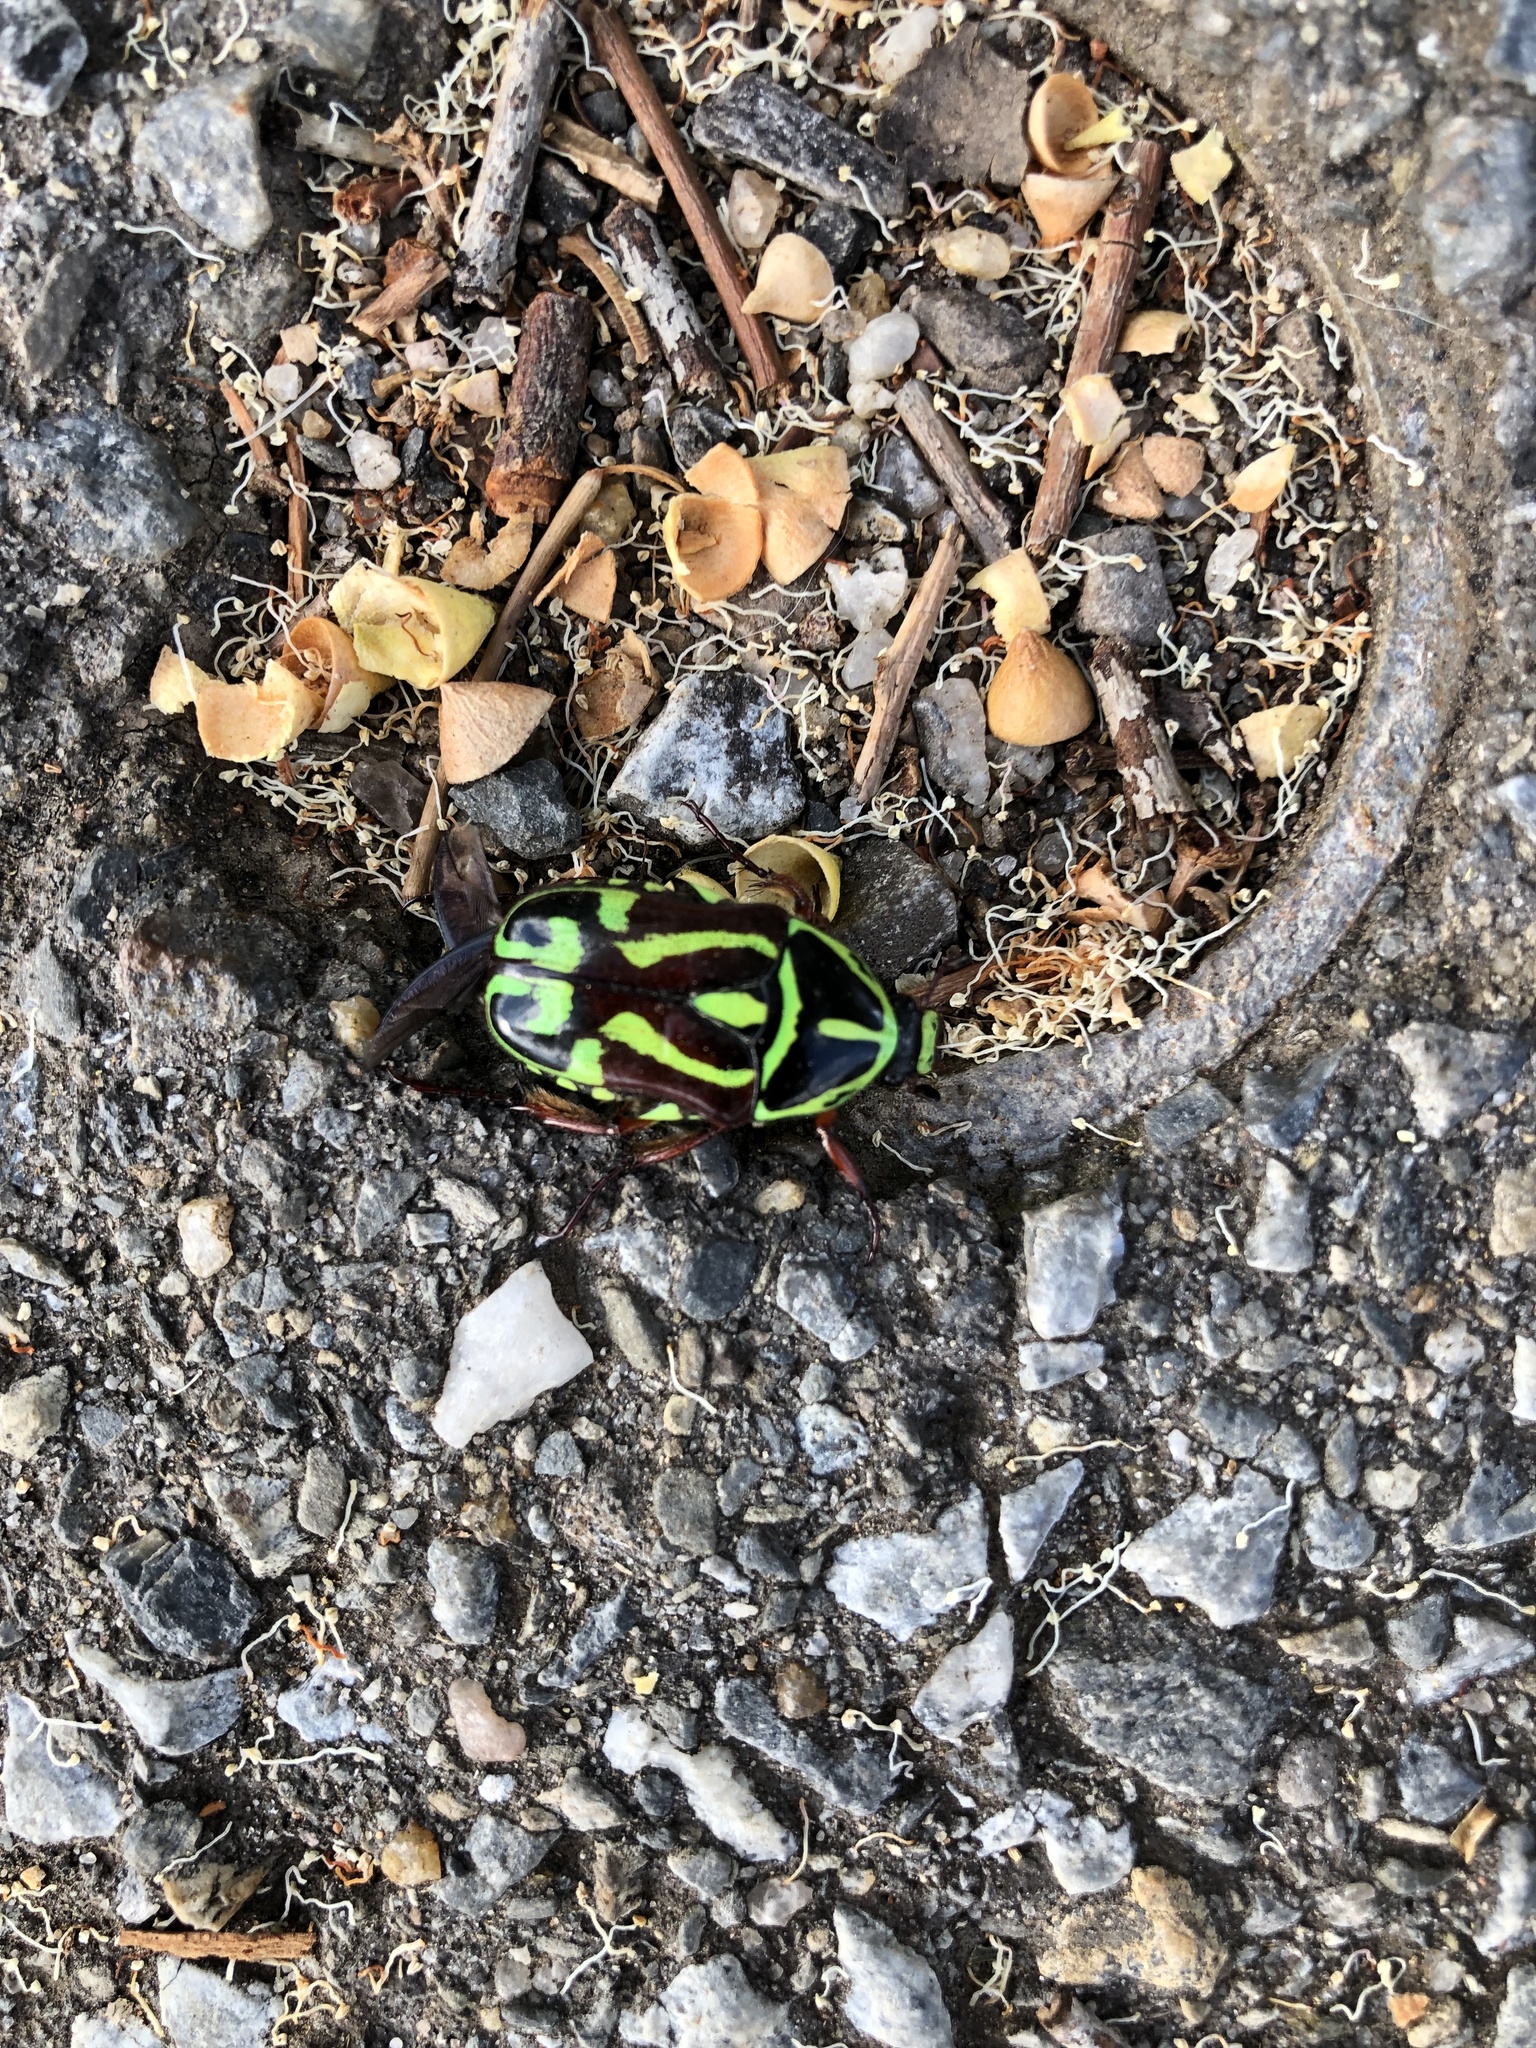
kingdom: Animalia
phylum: Arthropoda
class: Insecta
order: Coleoptera
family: Scarabaeidae
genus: Eupoecila
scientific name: Eupoecila australasiae
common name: Fiddler beetle
